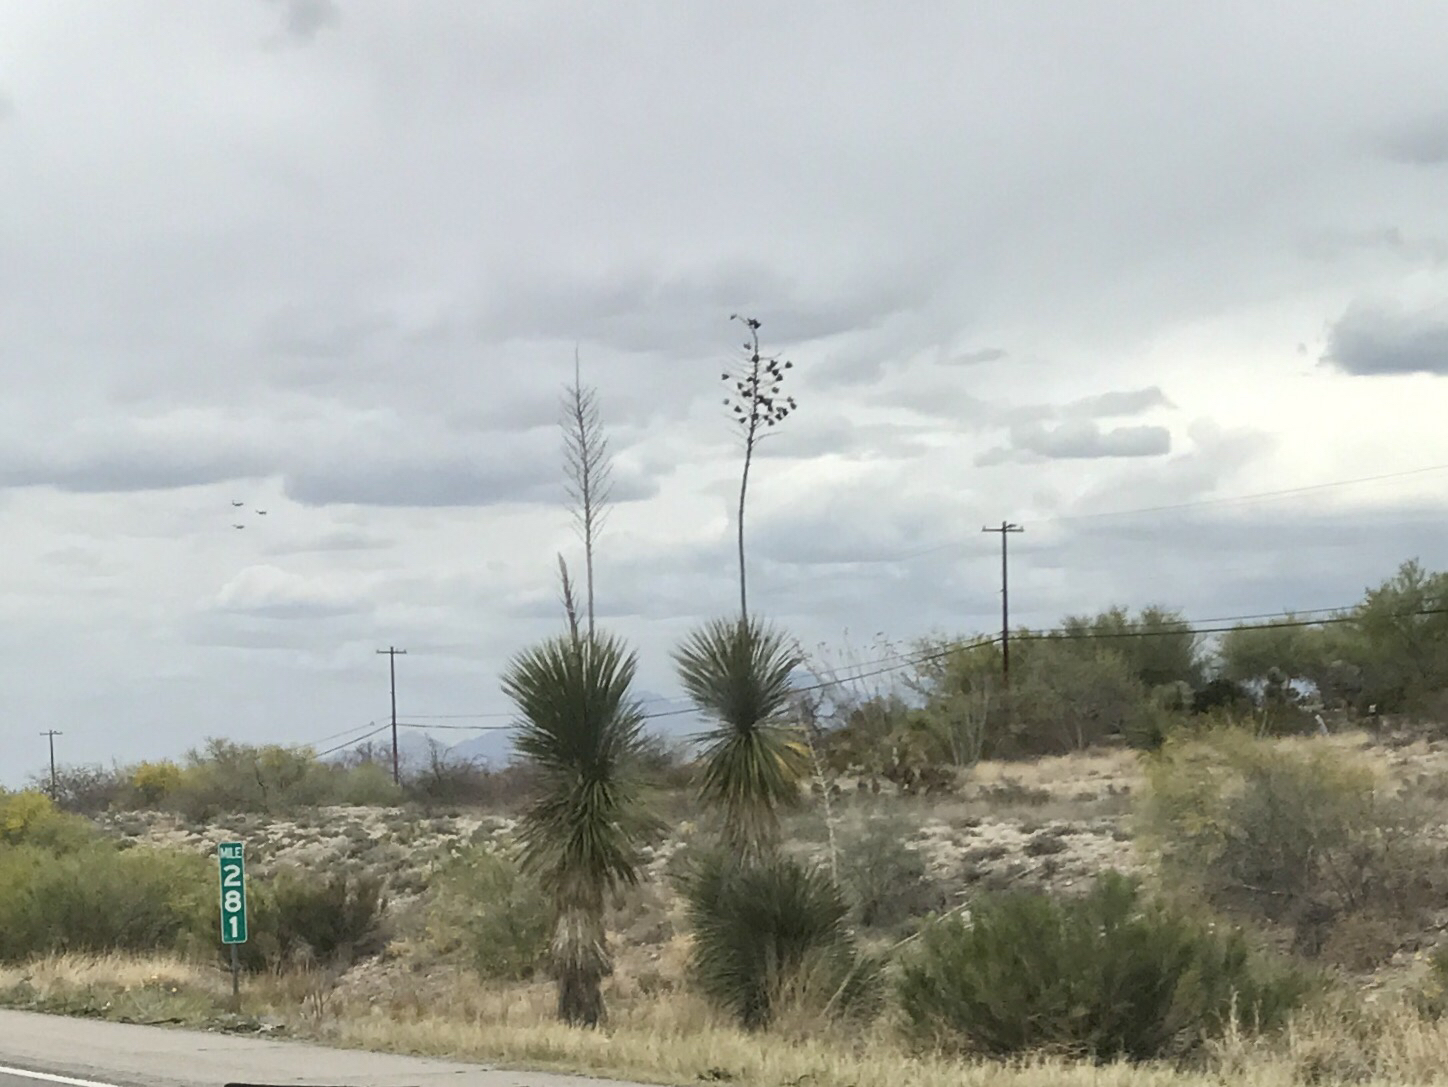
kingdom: Plantae
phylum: Tracheophyta
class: Liliopsida
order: Asparagales
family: Asparagaceae
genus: Yucca
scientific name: Yucca elata
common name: Palmella
